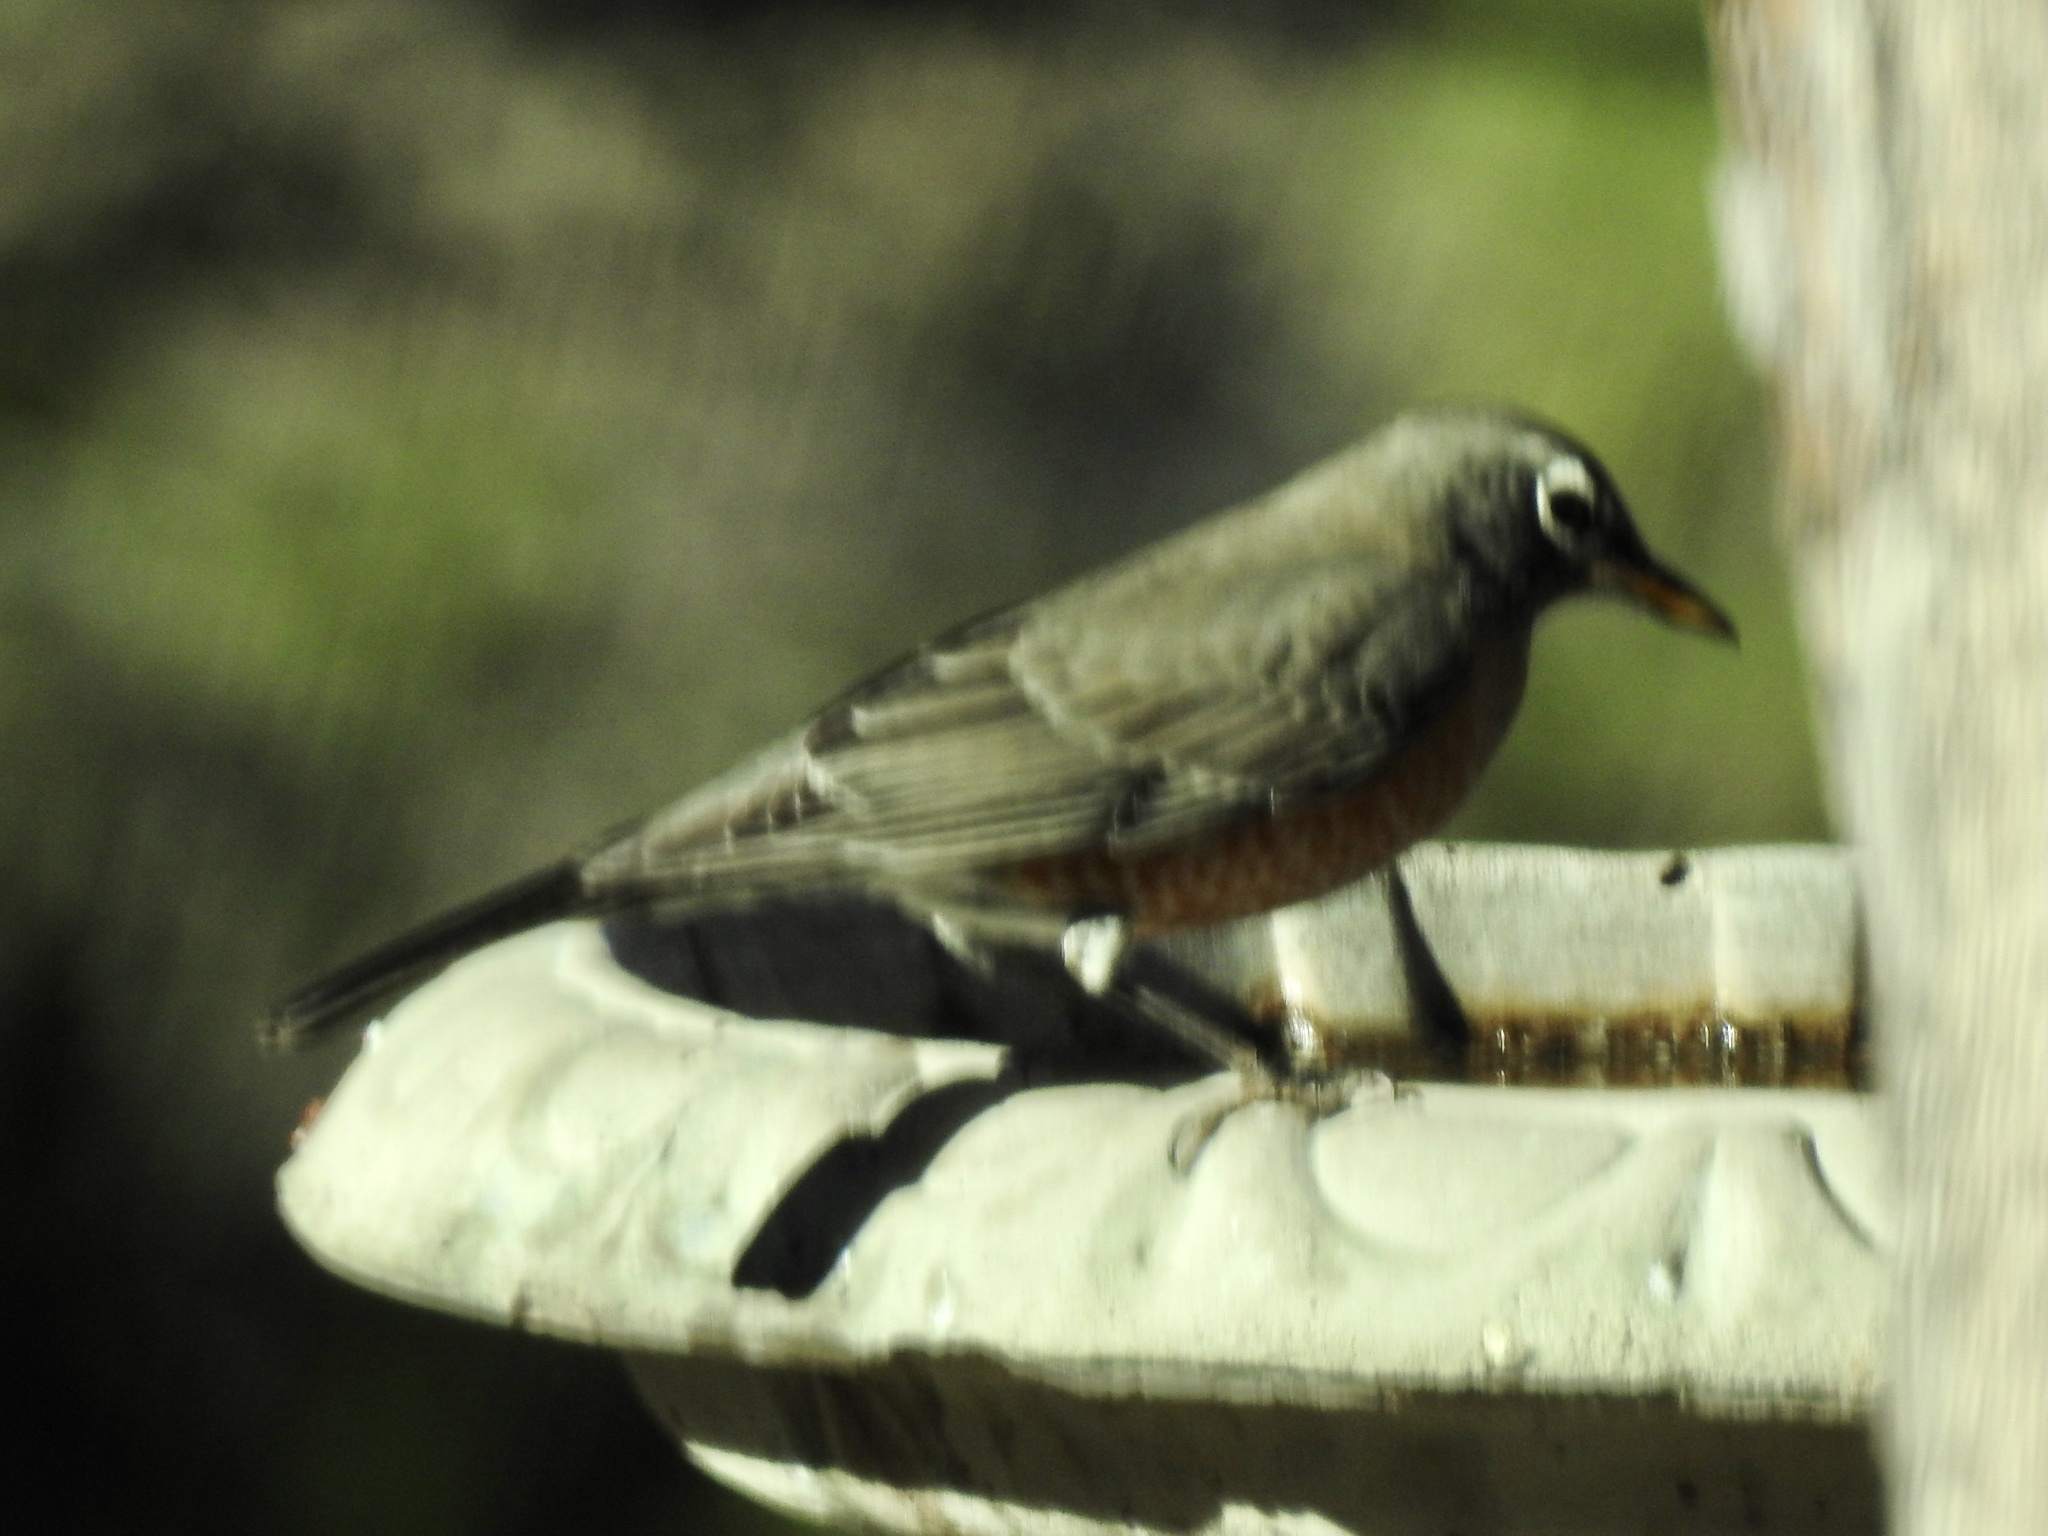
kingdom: Animalia
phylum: Chordata
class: Aves
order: Passeriformes
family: Turdidae
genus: Turdus
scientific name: Turdus migratorius
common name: American robin
